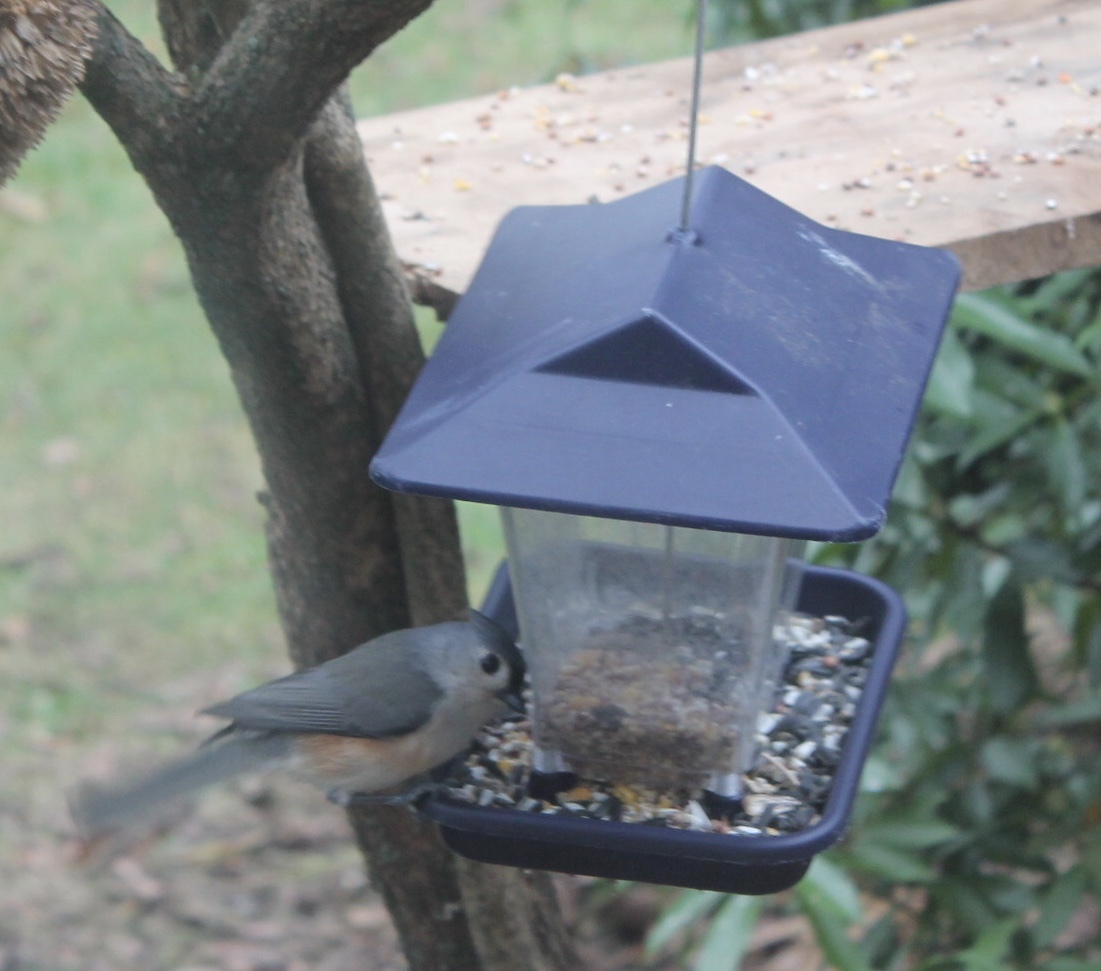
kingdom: Animalia
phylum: Chordata
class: Aves
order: Passeriformes
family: Paridae
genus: Baeolophus
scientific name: Baeolophus bicolor
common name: Tufted titmouse
